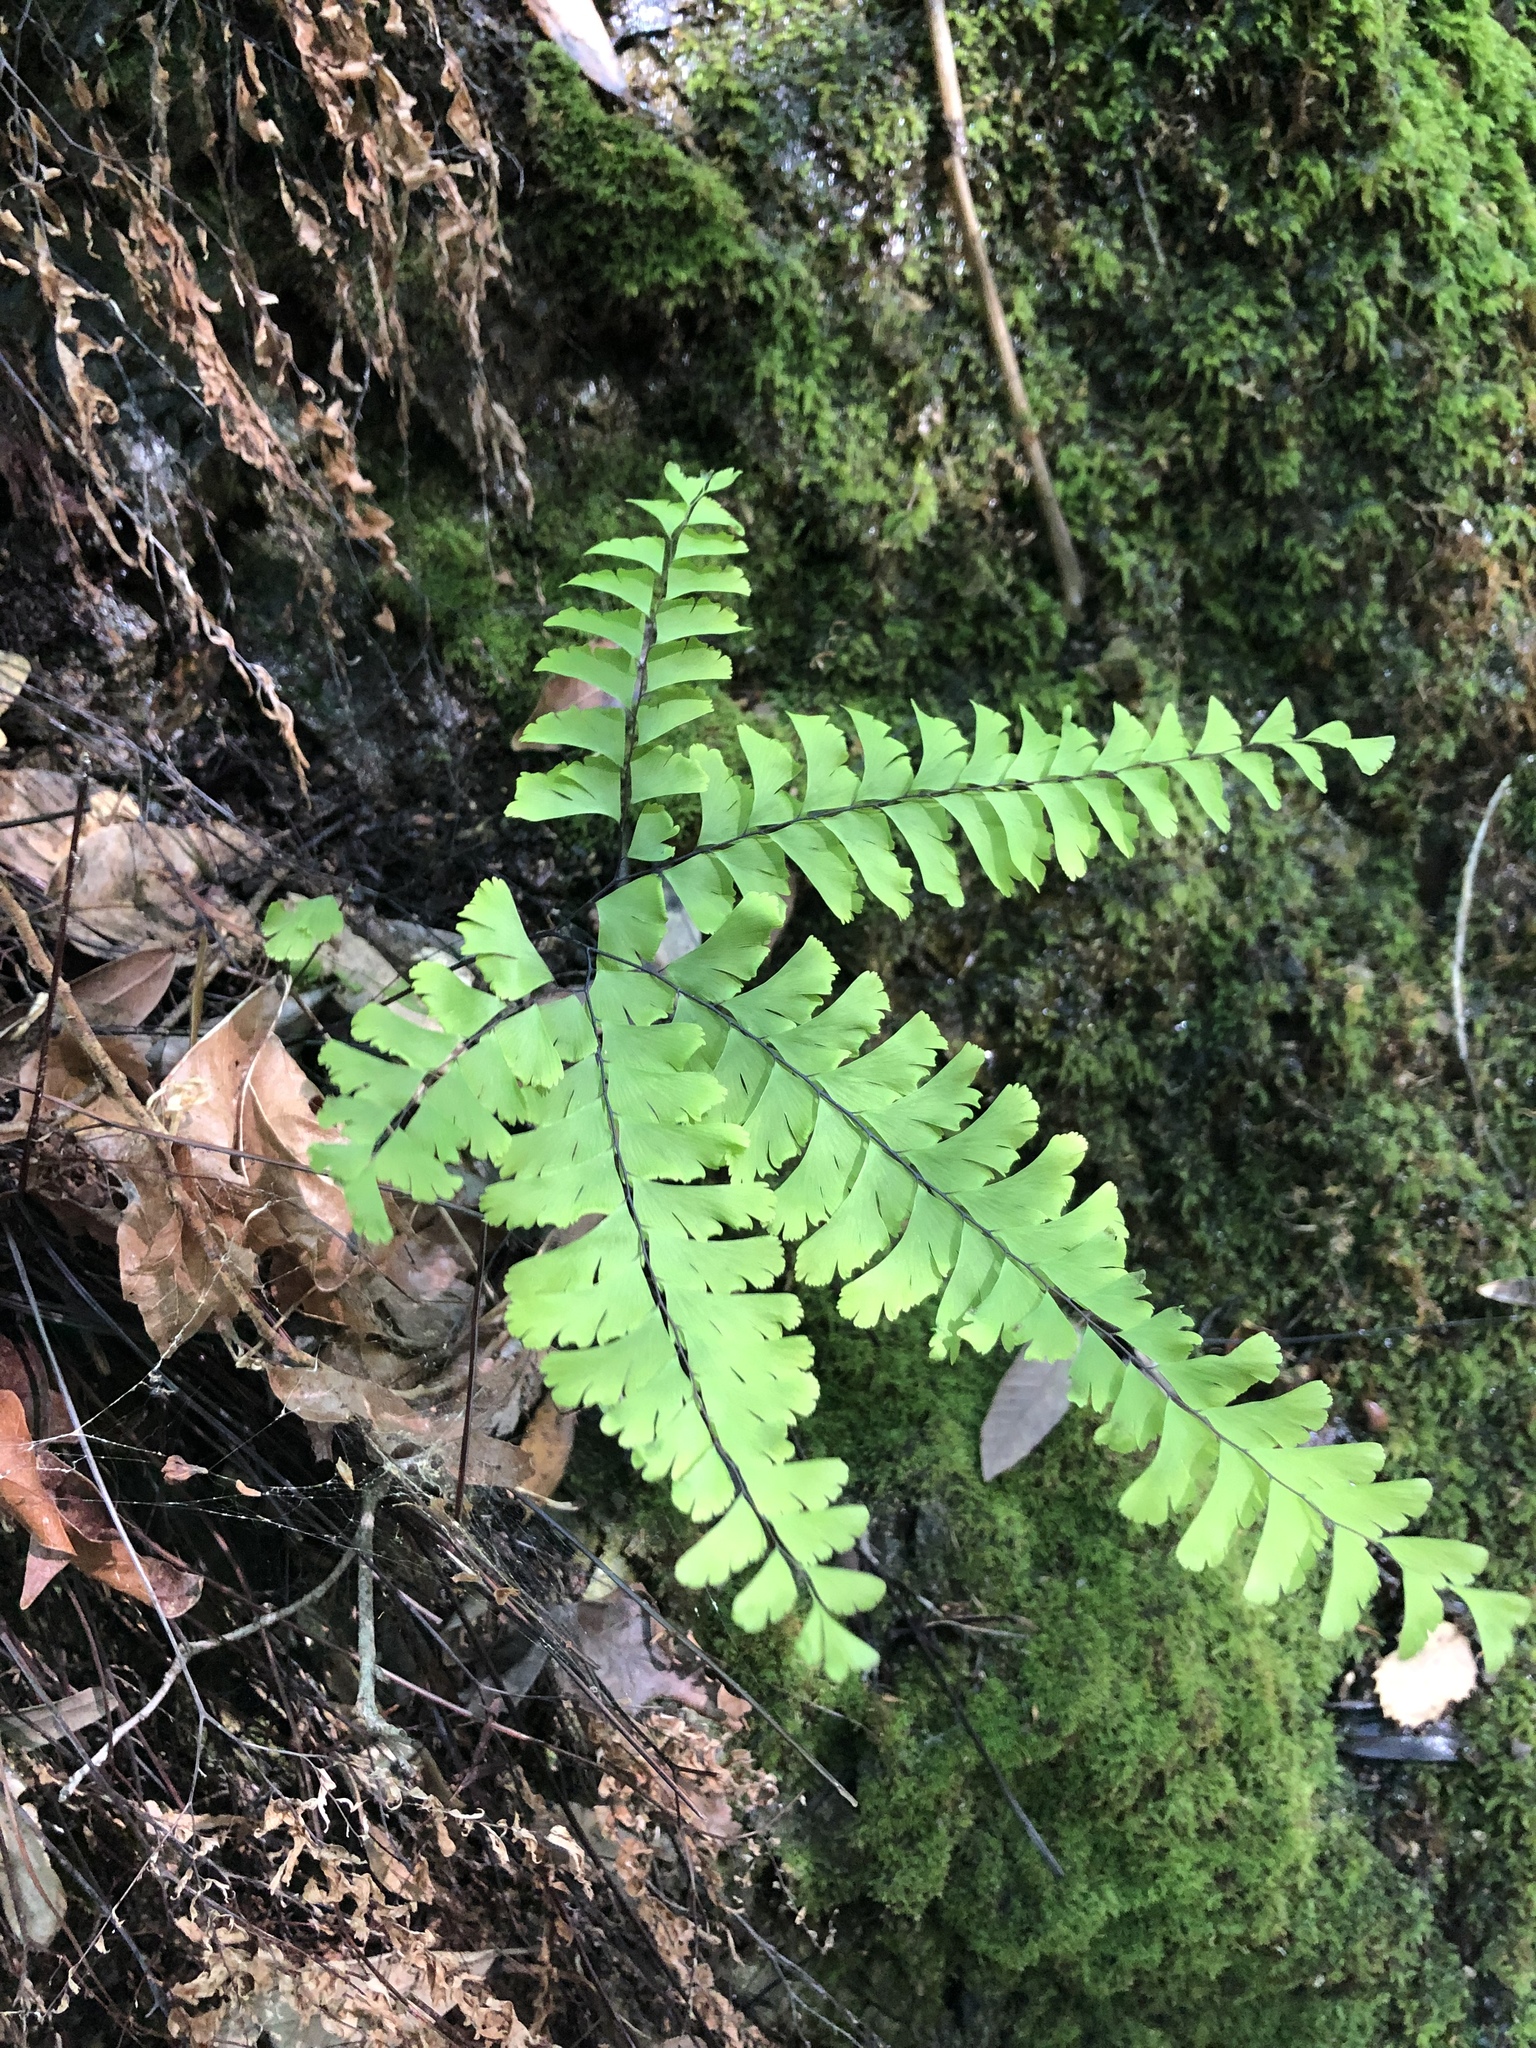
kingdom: Plantae
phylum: Tracheophyta
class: Polypodiopsida
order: Polypodiales
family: Pteridaceae
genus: Adiantum
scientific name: Adiantum aleuticum
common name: Aleutian maidenhair fern
